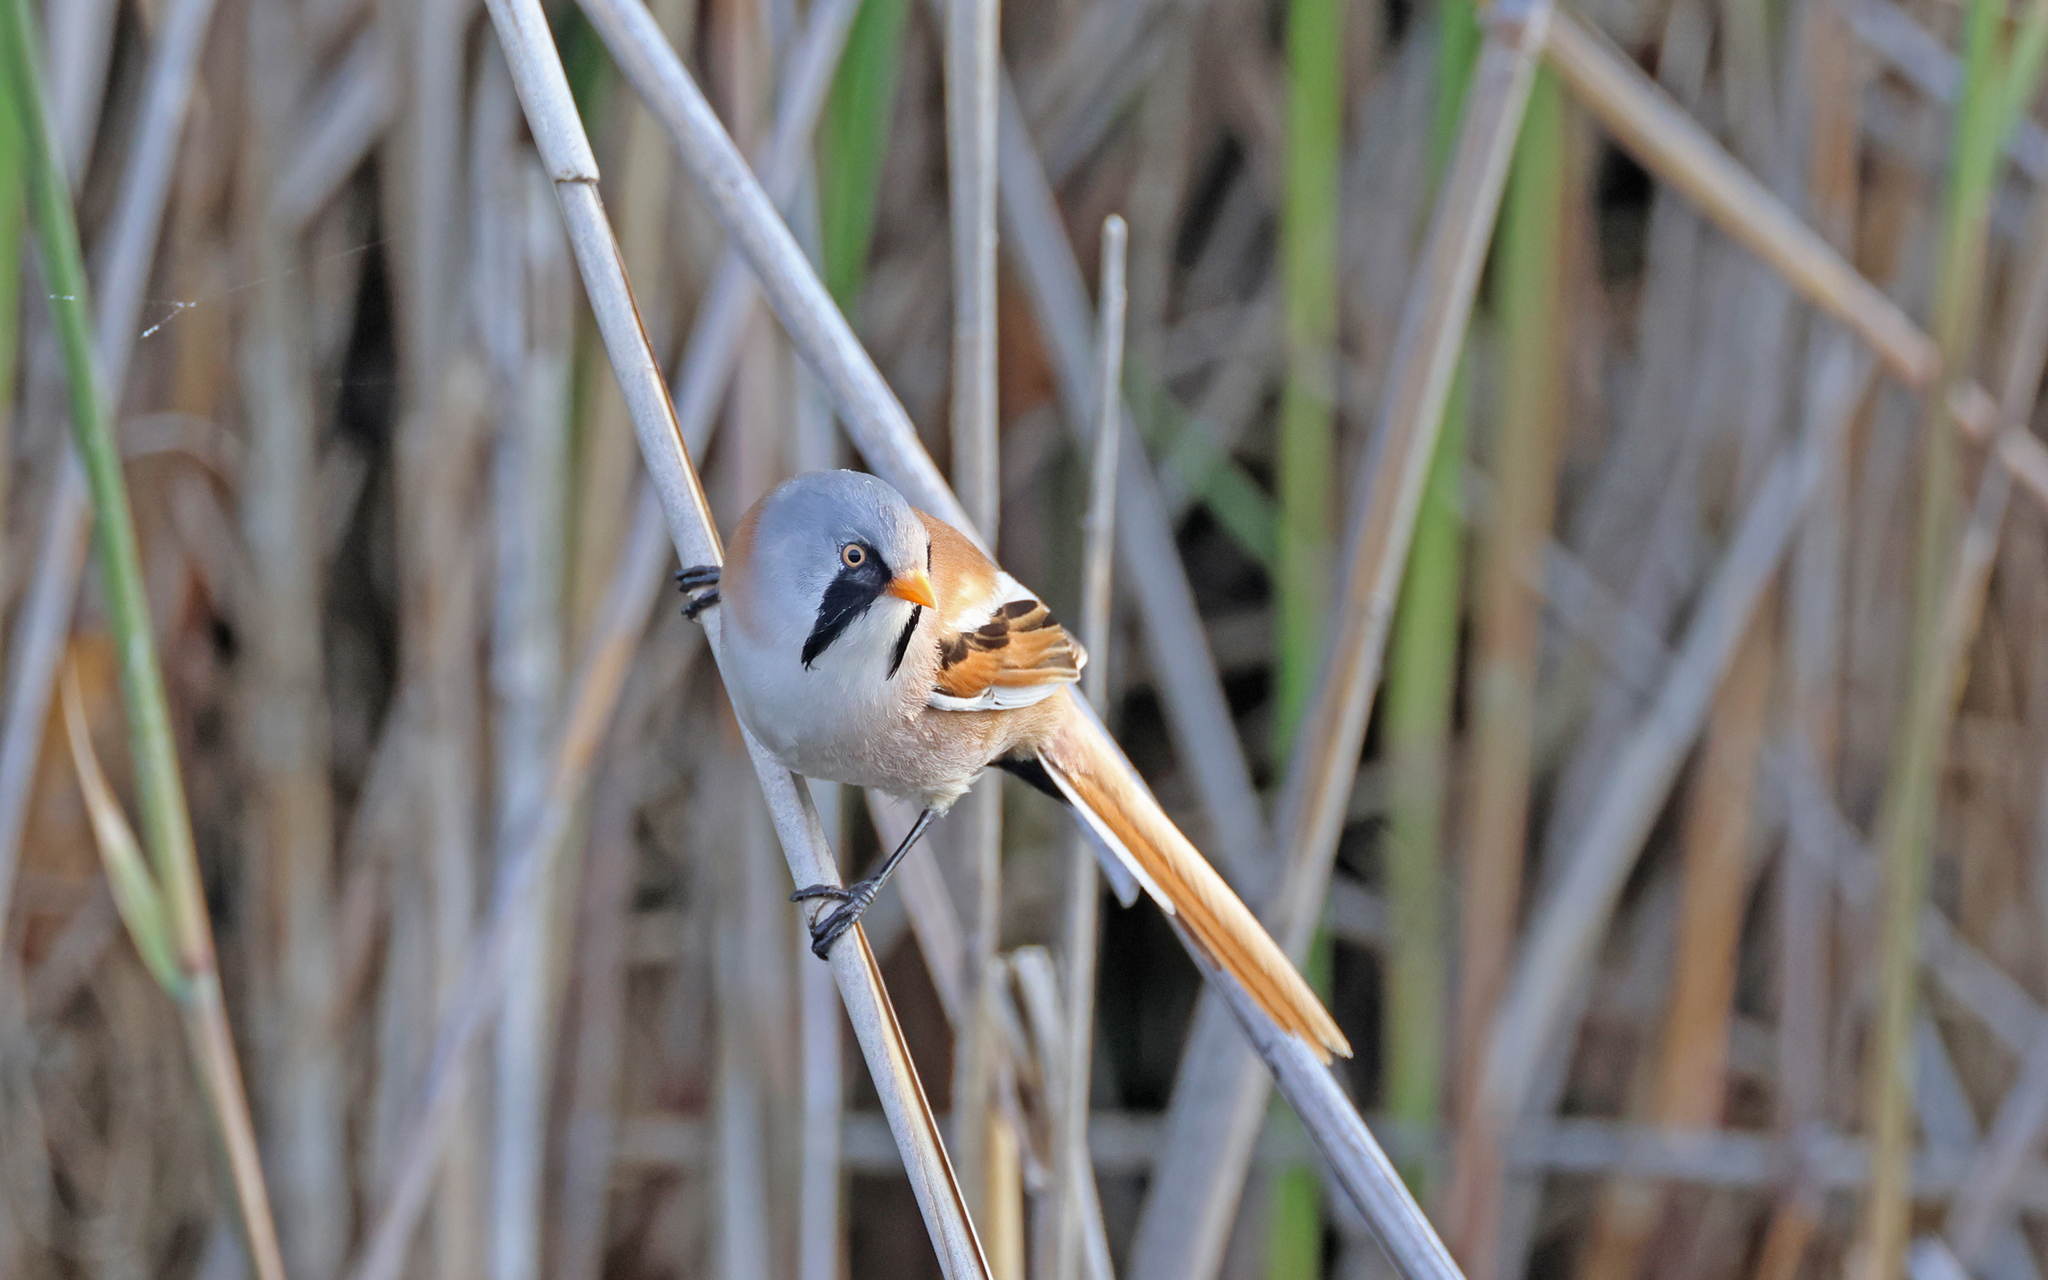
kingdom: Animalia
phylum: Chordata
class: Aves
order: Passeriformes
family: Panuridae
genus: Panurus
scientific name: Panurus biarmicus
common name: Bearded reedling
